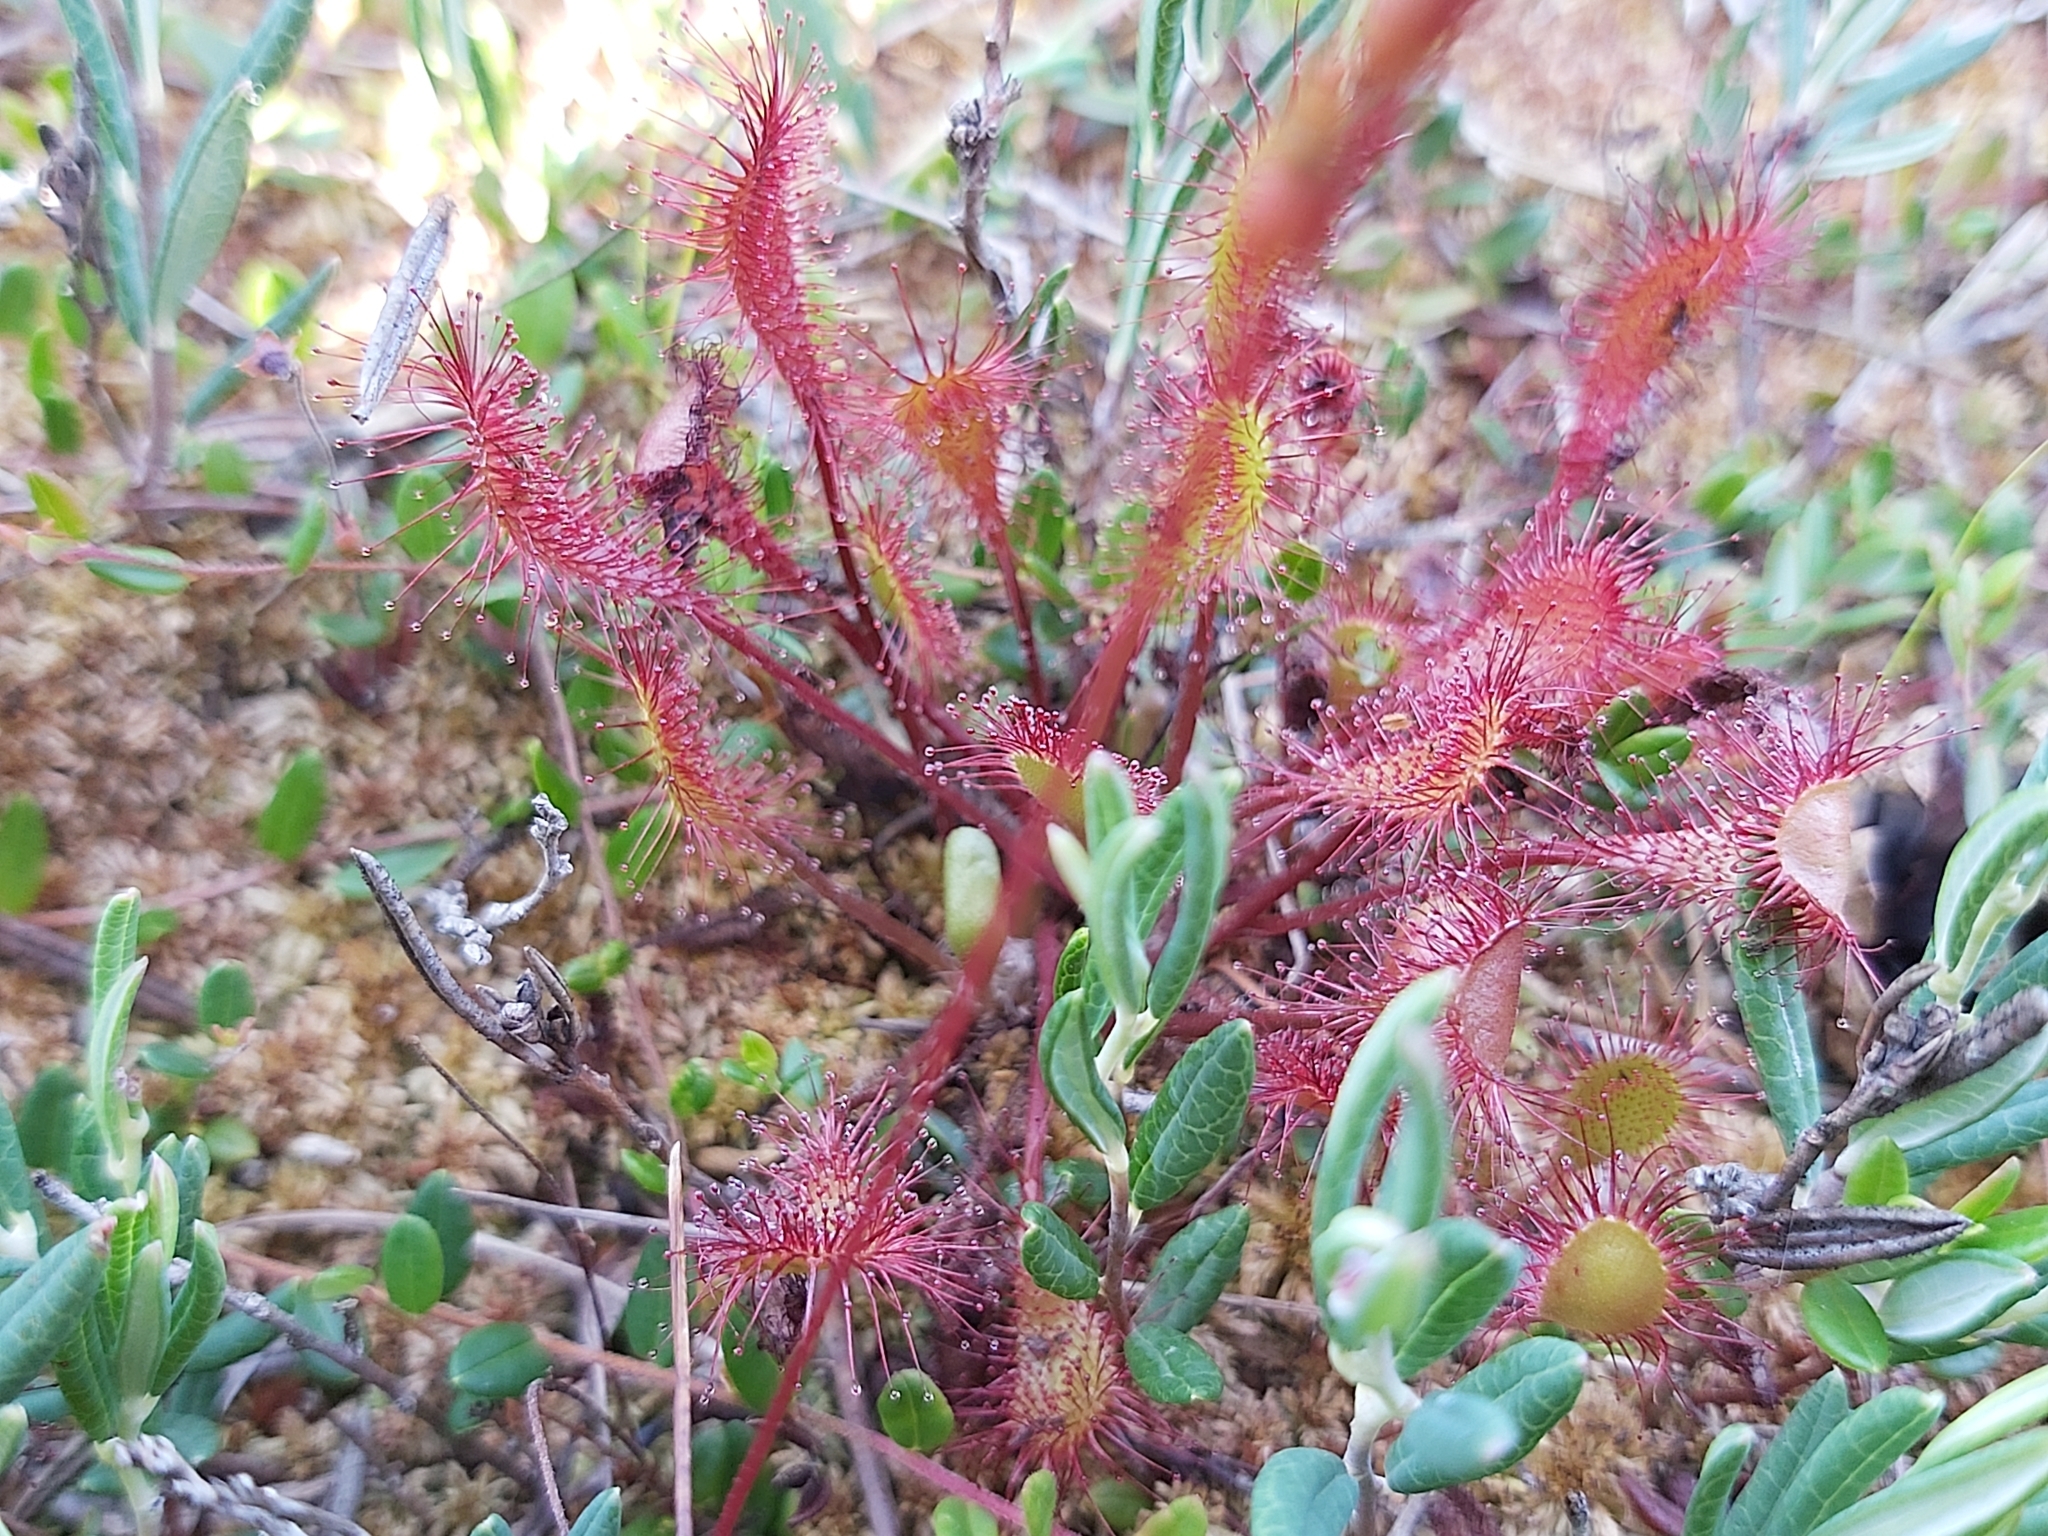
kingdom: Plantae
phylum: Tracheophyta
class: Magnoliopsida
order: Caryophyllales
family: Droseraceae
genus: Drosera
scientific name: Drosera obovata
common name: Ivan's paddle
